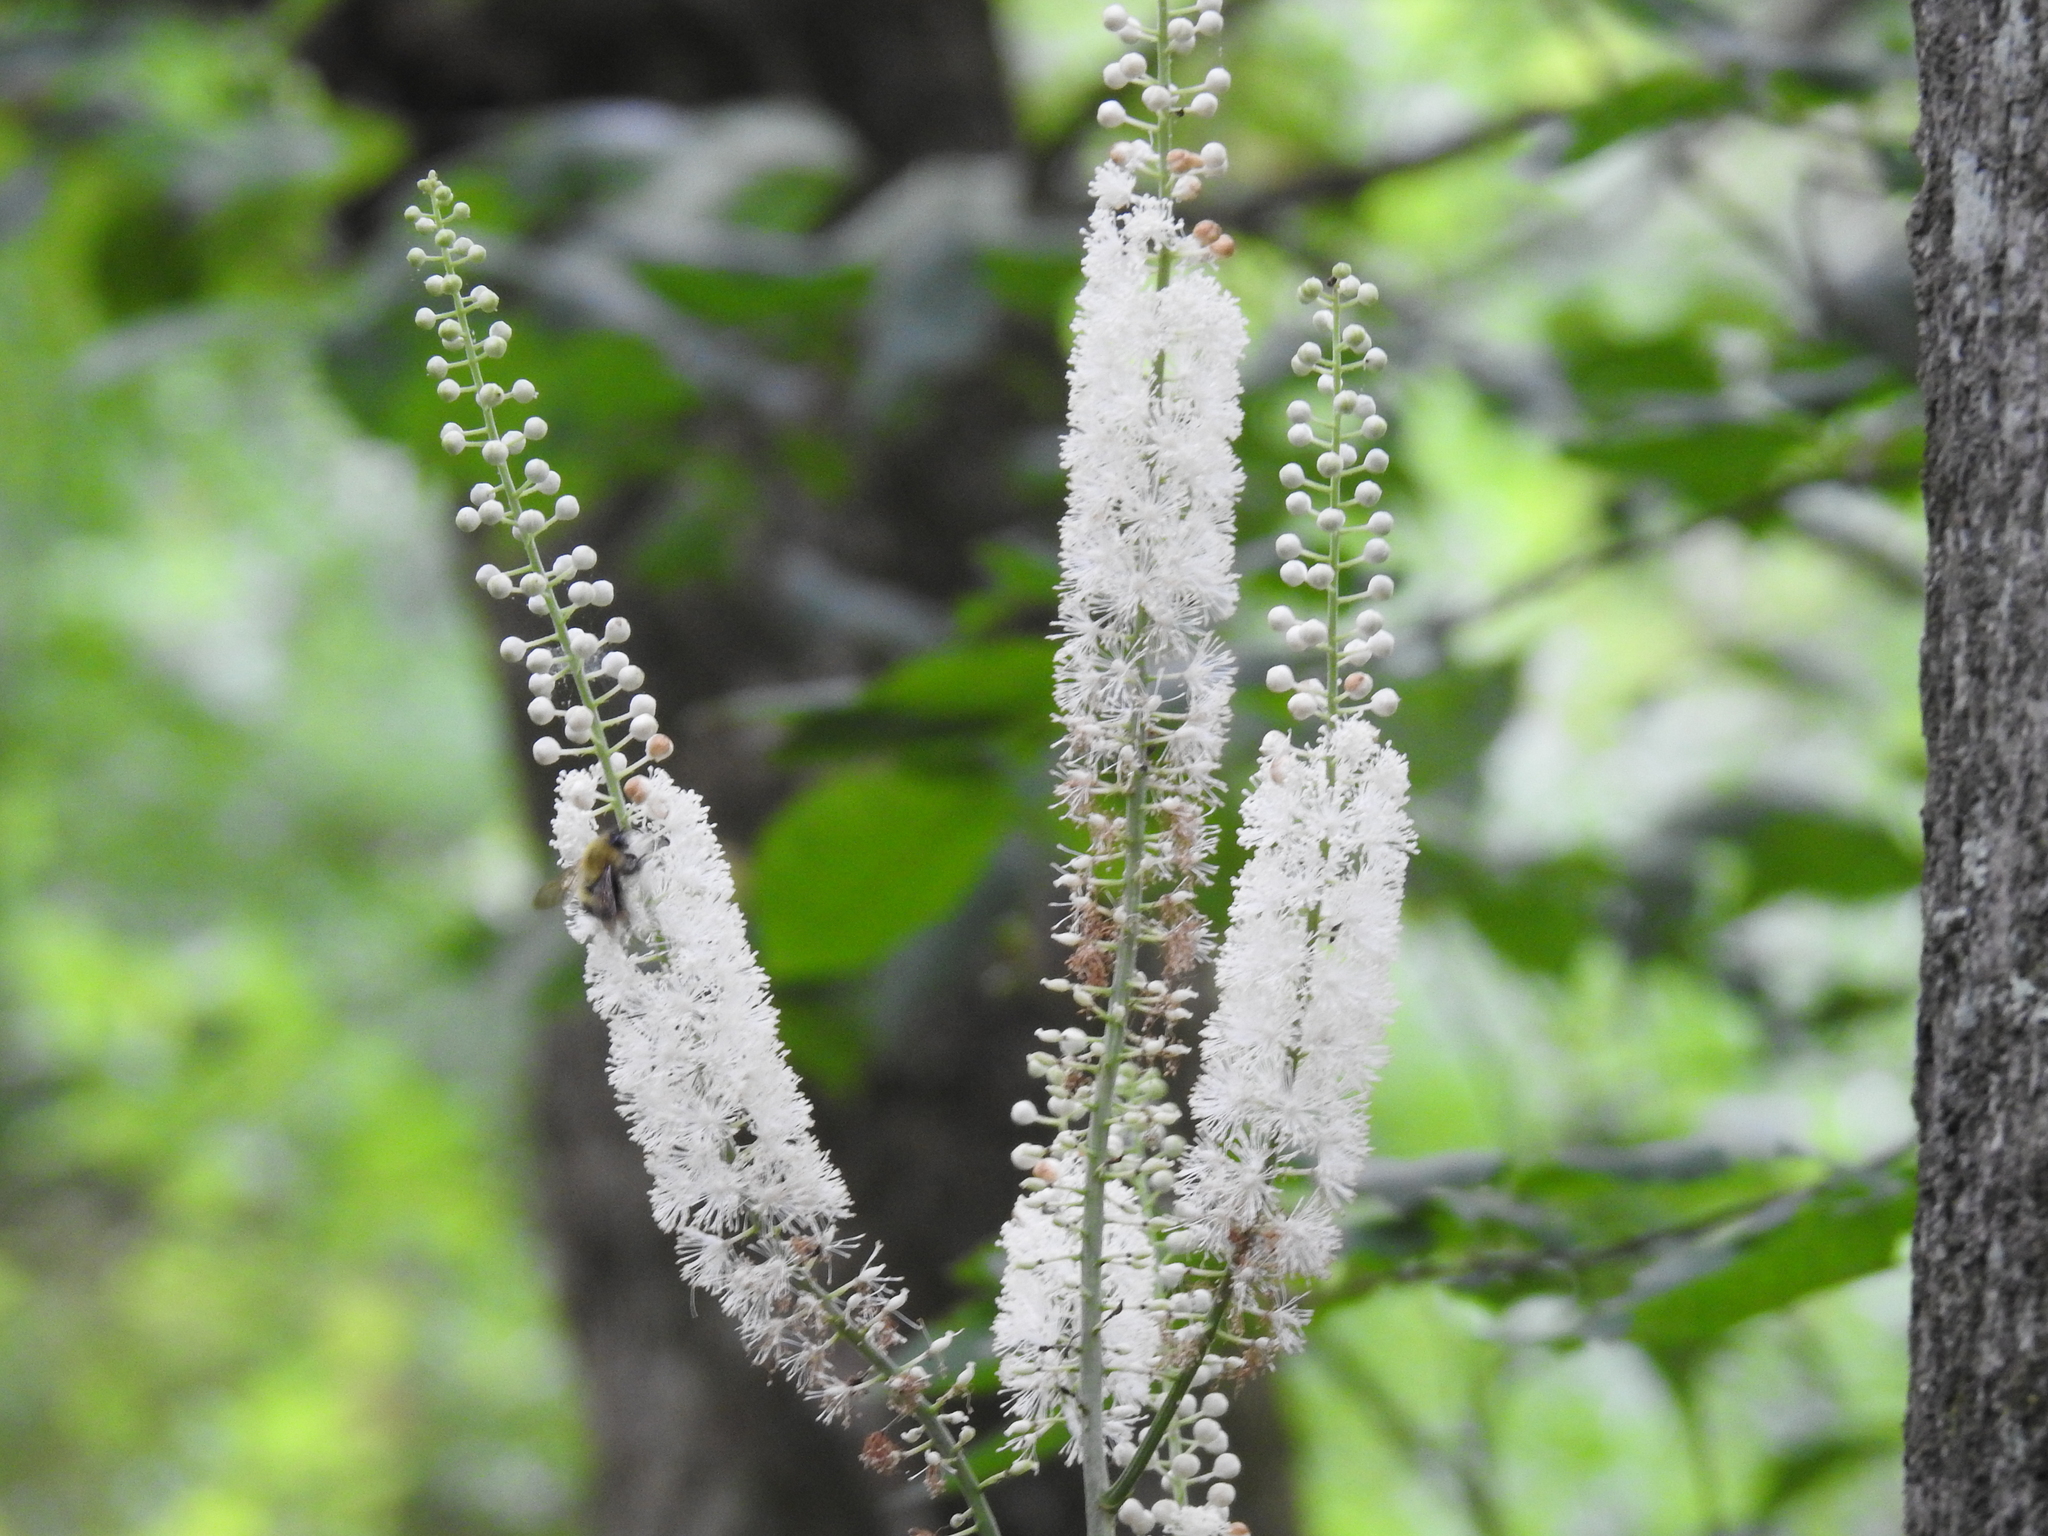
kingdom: Plantae
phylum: Tracheophyta
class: Magnoliopsida
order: Ranunculales
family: Ranunculaceae
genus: Actaea
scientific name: Actaea racemosa
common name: Black cohosh
